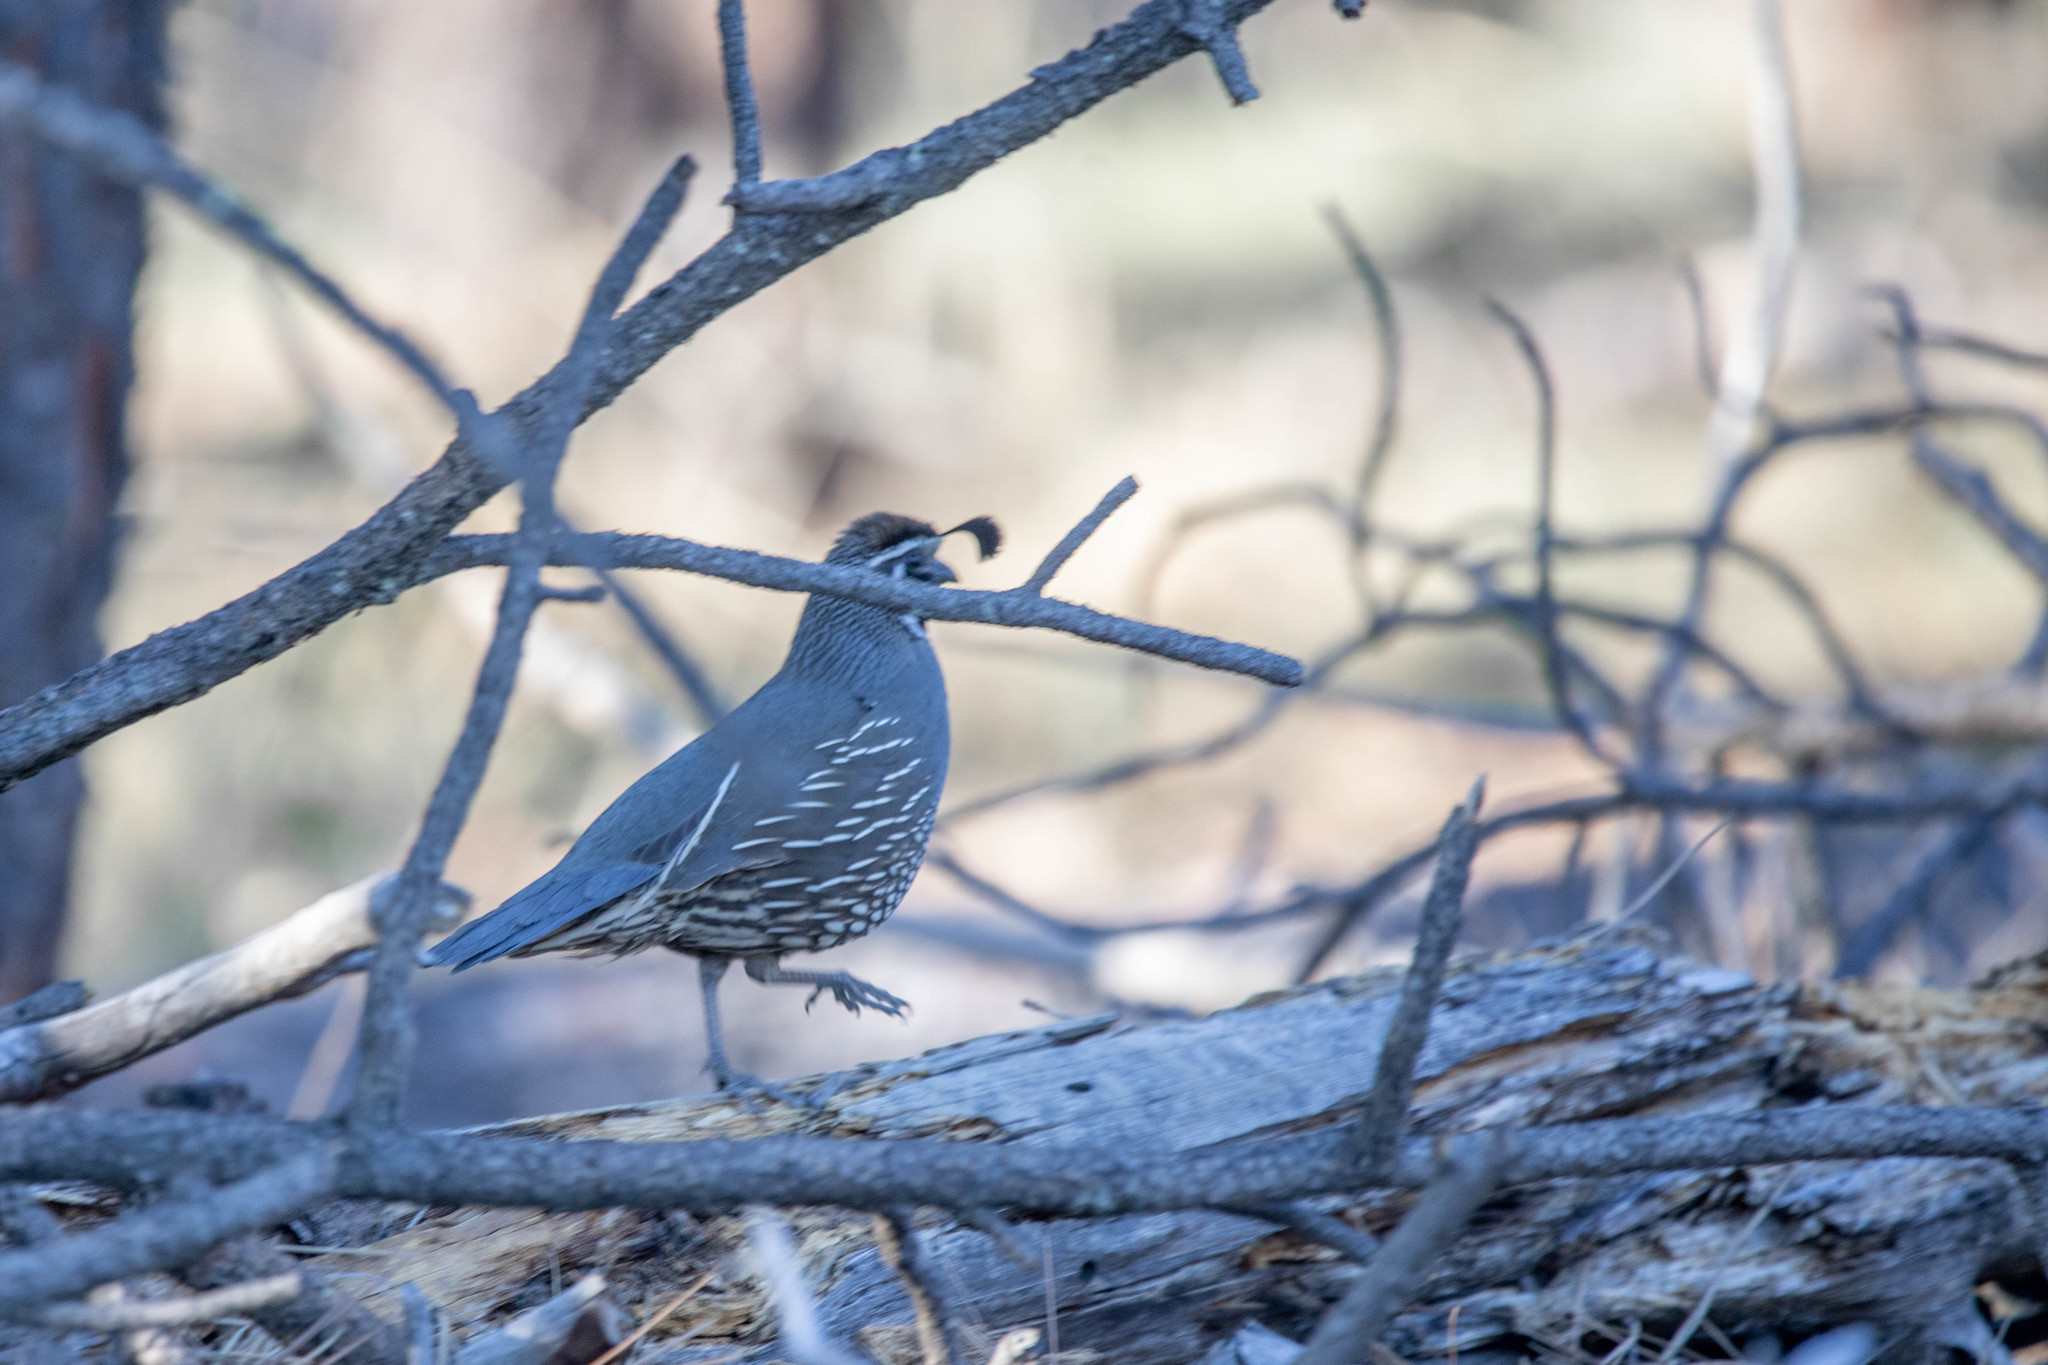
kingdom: Animalia
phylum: Chordata
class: Aves
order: Galliformes
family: Odontophoridae
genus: Callipepla
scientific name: Callipepla californica
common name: California quail
